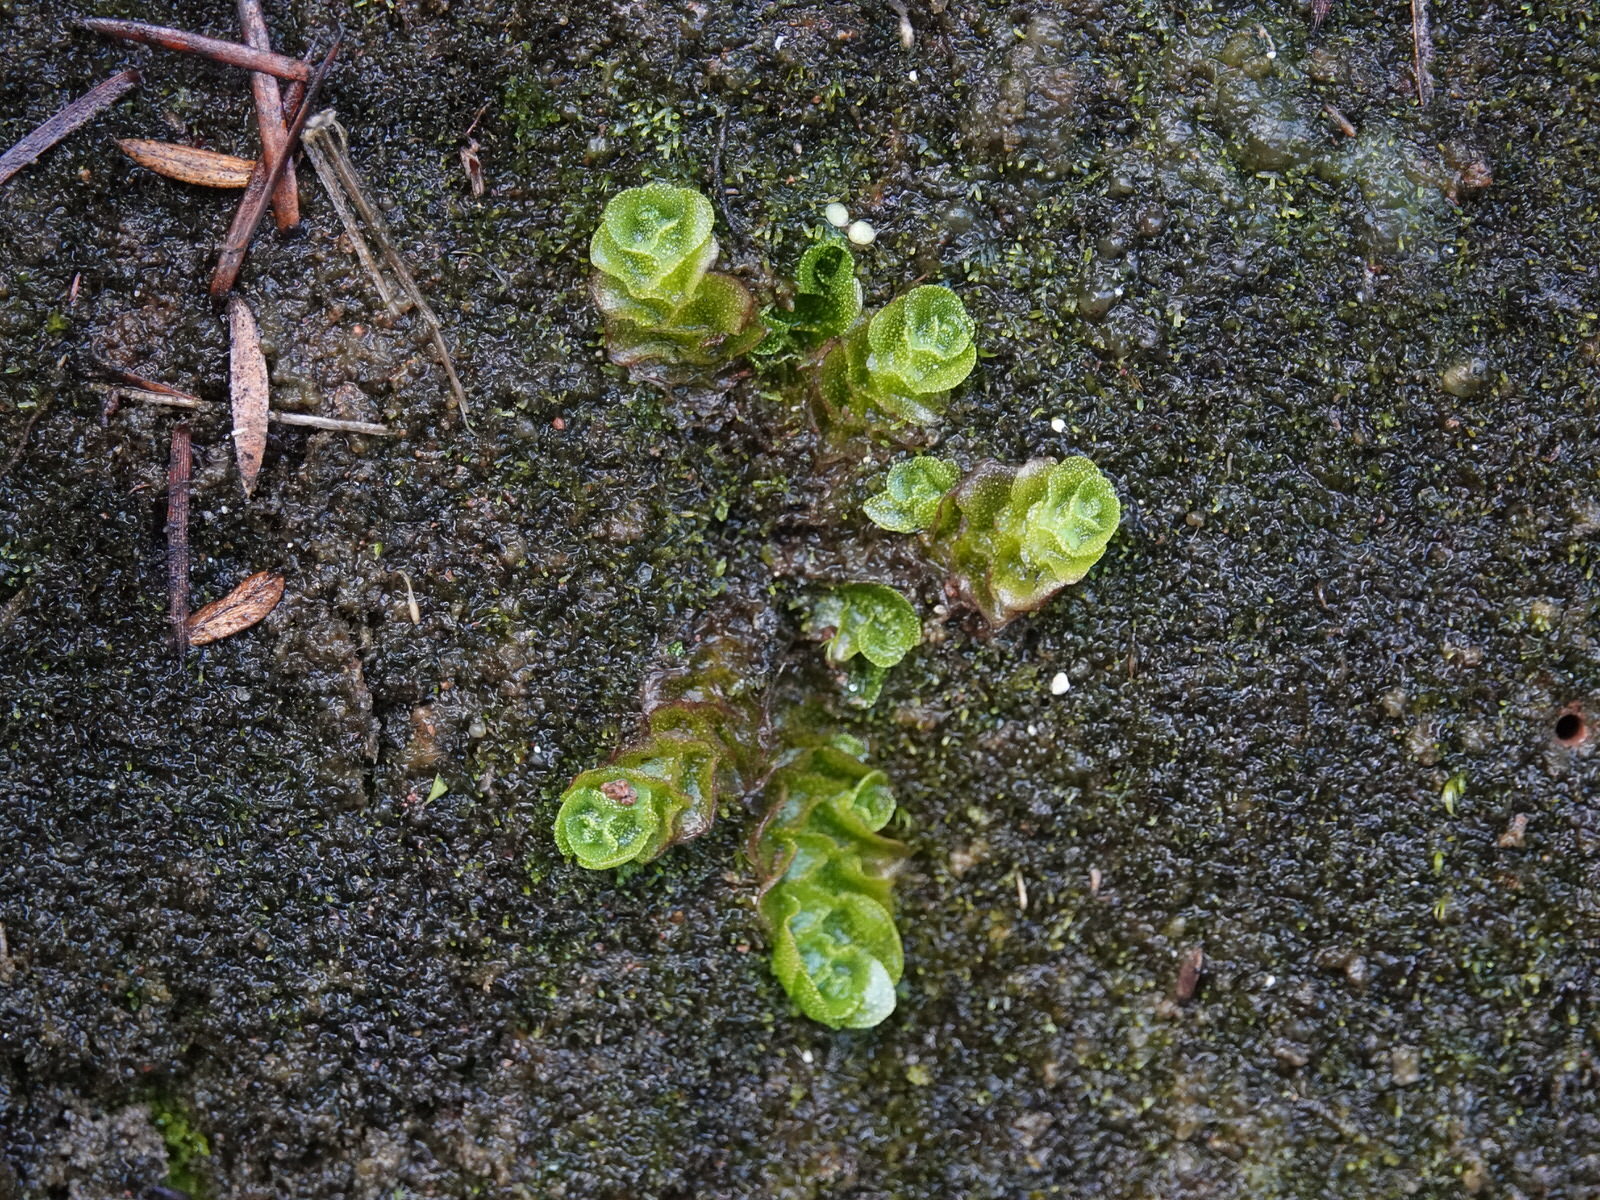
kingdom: Plantae
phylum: Marchantiophyta
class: Haplomitriopsida
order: Treubiales
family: Treubiaceae
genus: Treubia
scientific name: Treubia lacunosa
